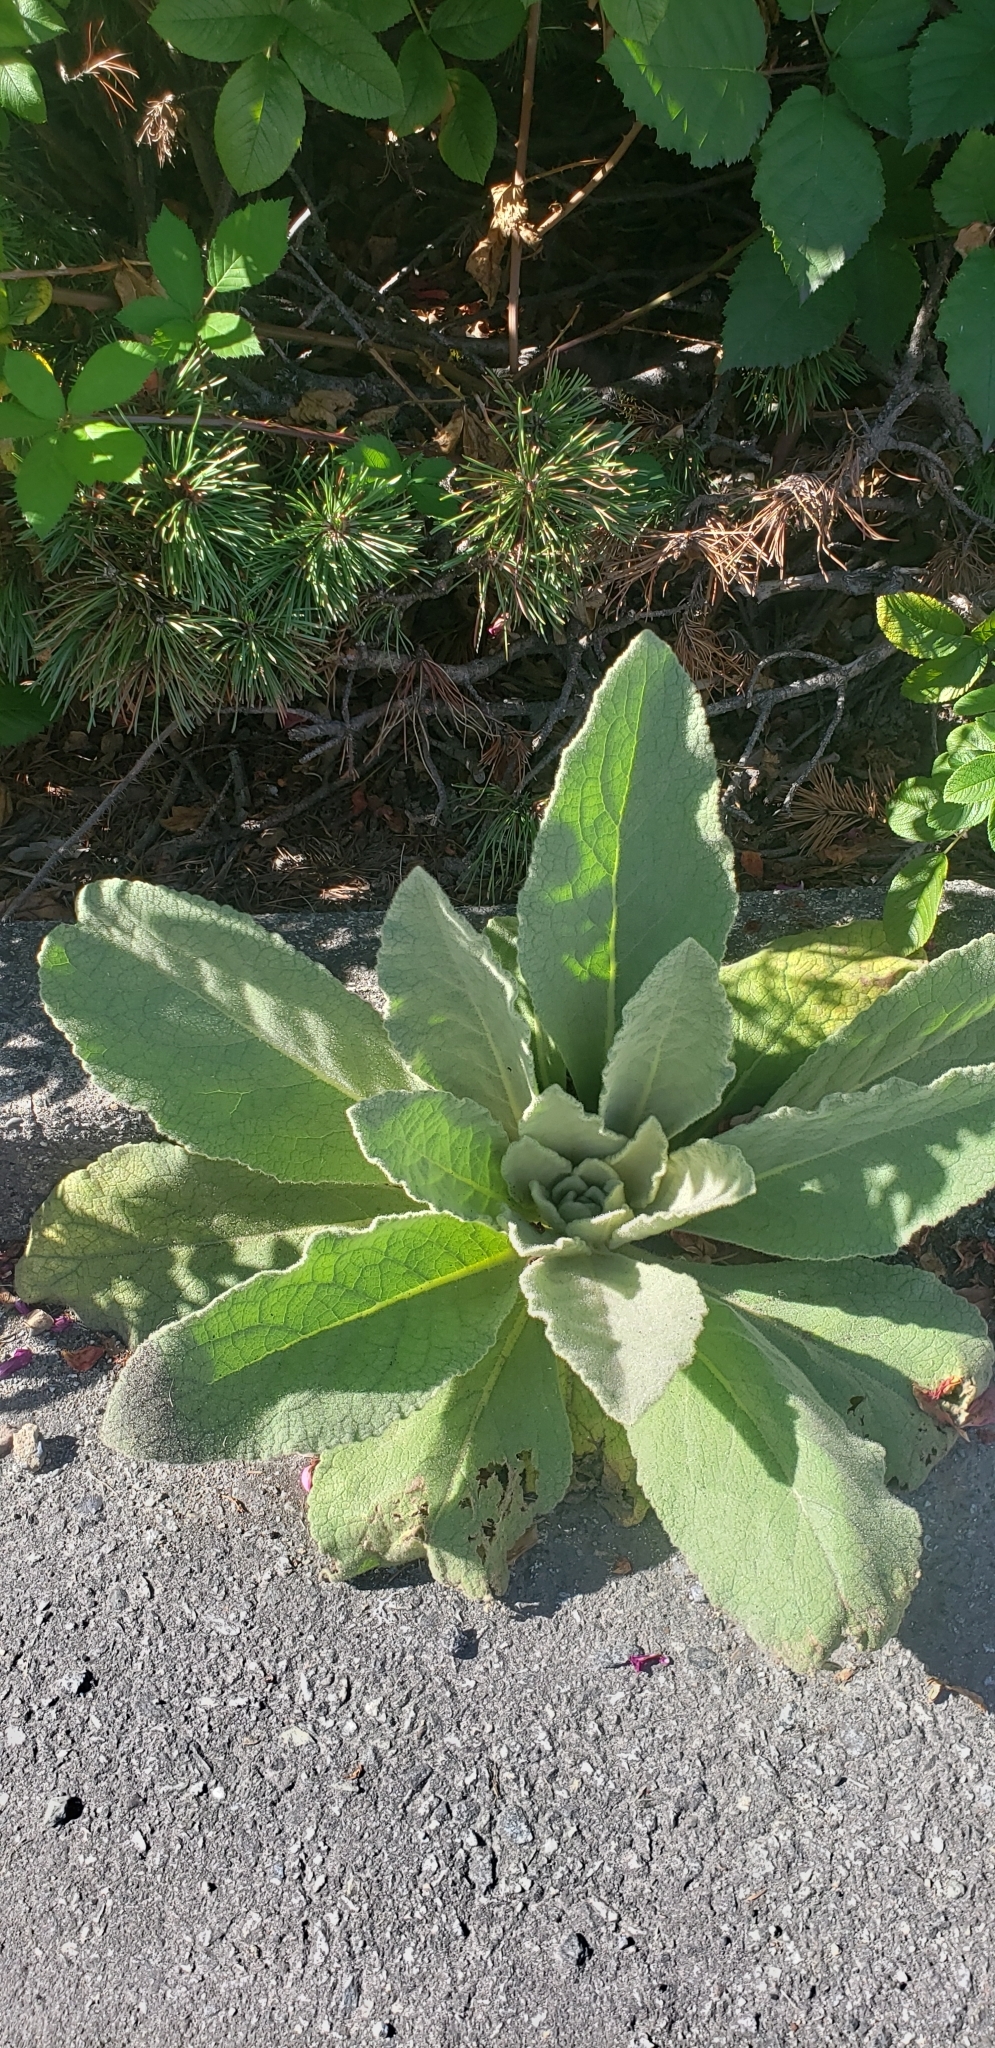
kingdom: Plantae
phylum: Tracheophyta
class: Magnoliopsida
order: Lamiales
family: Scrophulariaceae
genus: Verbascum
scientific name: Verbascum thapsus
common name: Common mullein
